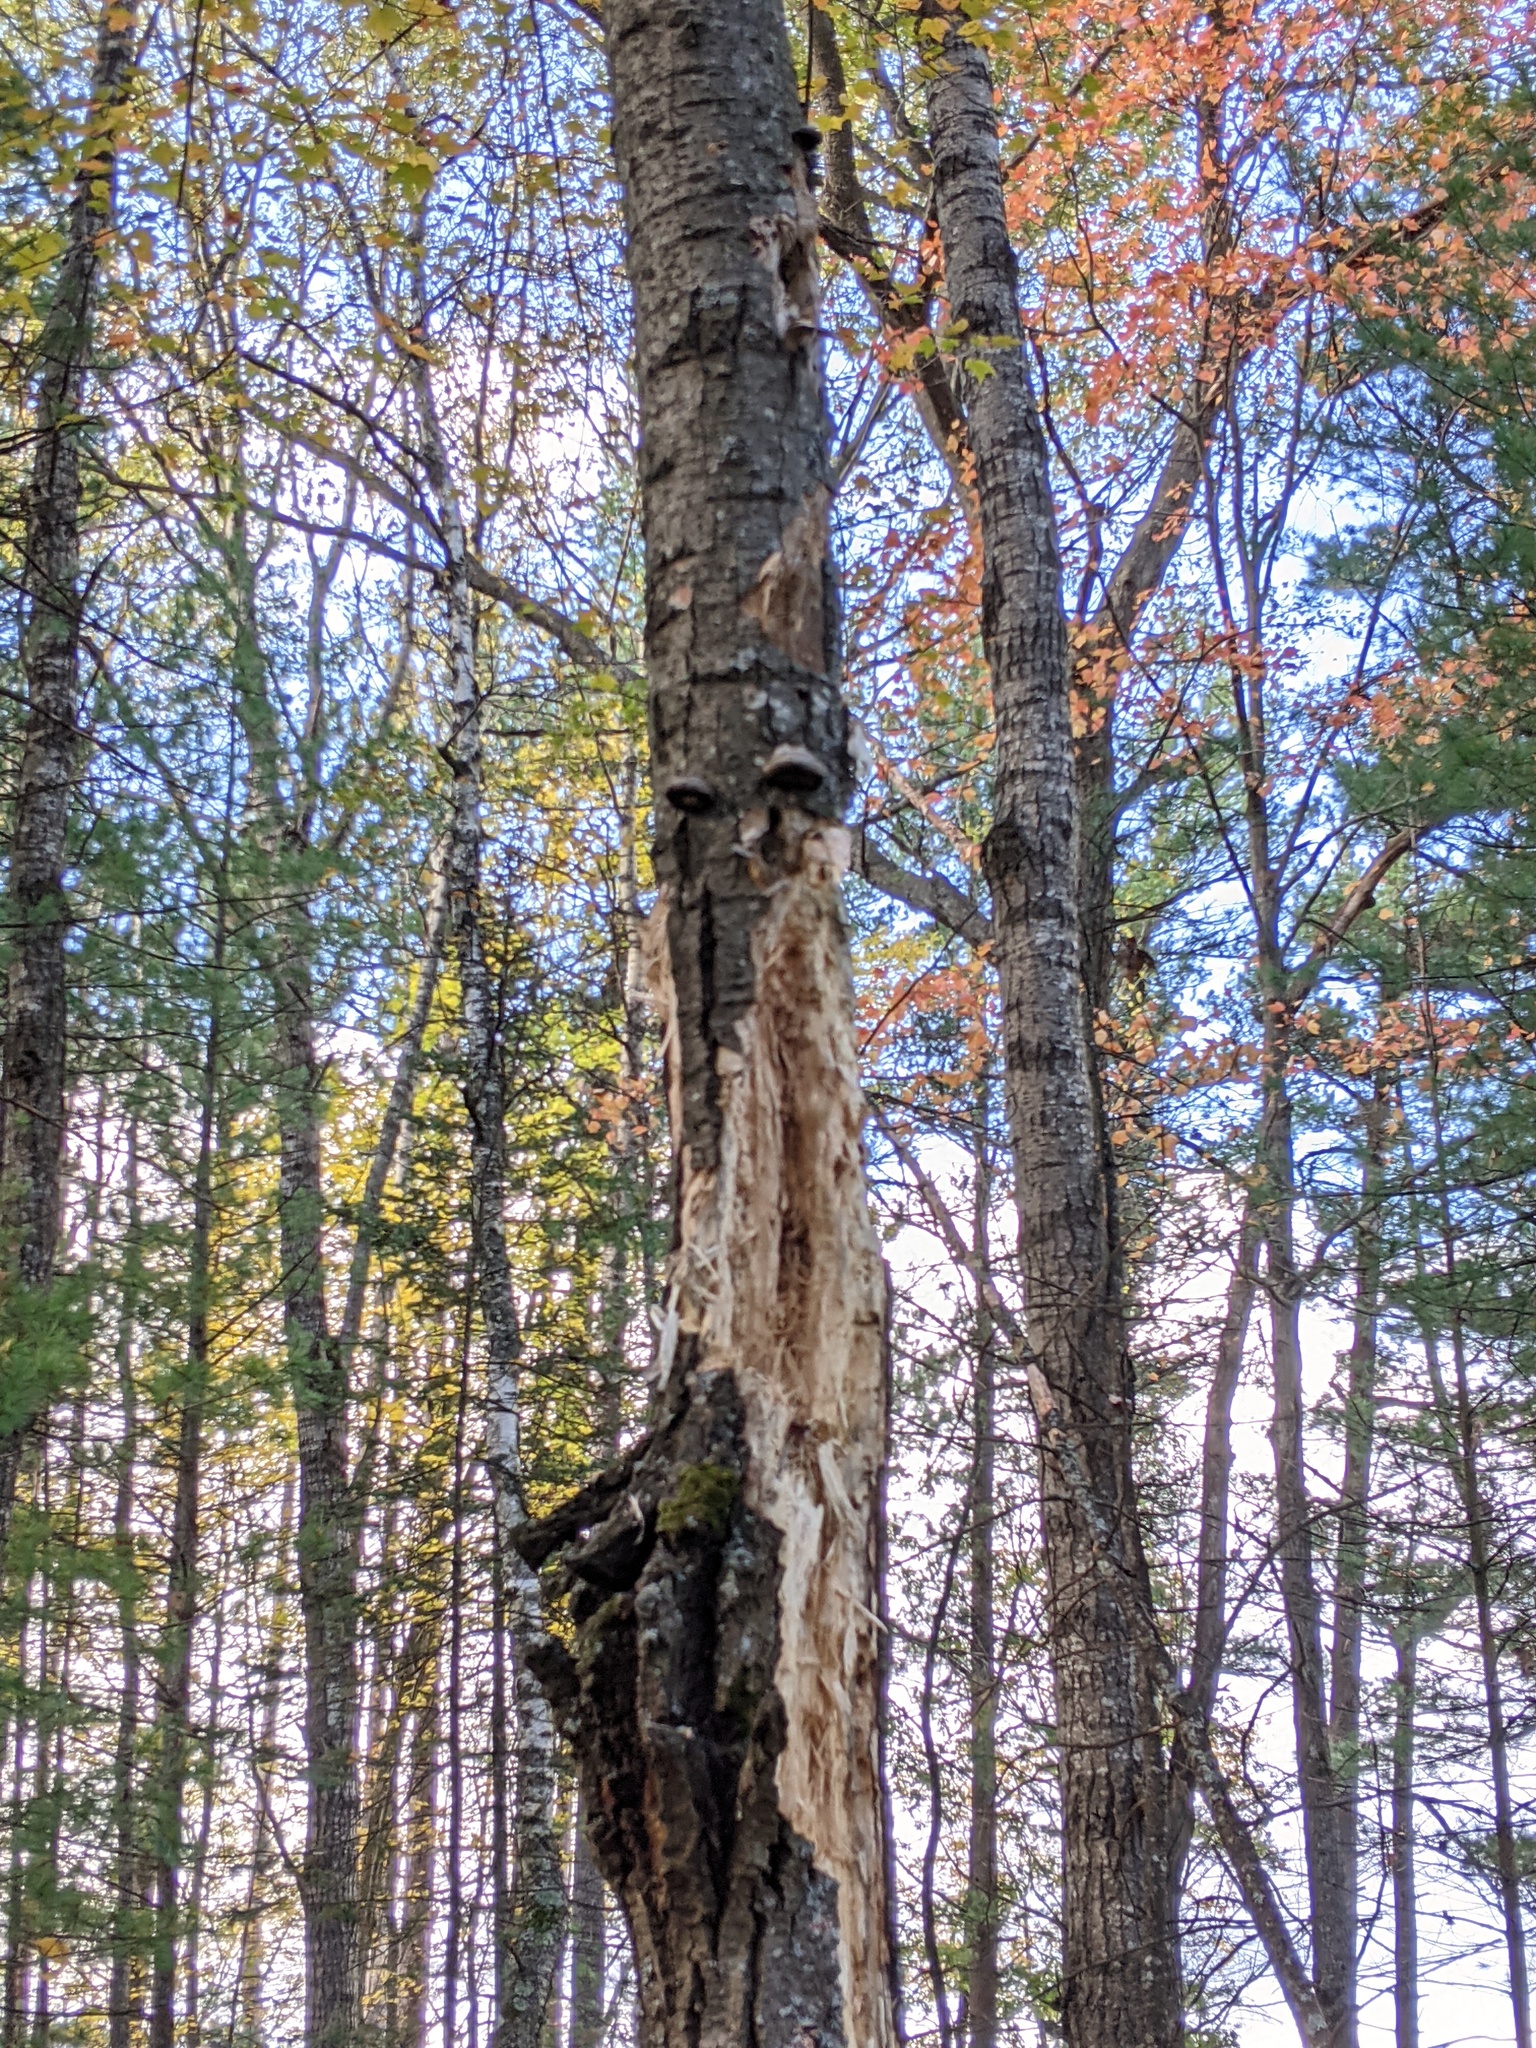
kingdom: Animalia
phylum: Chordata
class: Aves
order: Piciformes
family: Picidae
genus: Dryocopus
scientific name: Dryocopus pileatus
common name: Pileated woodpecker
